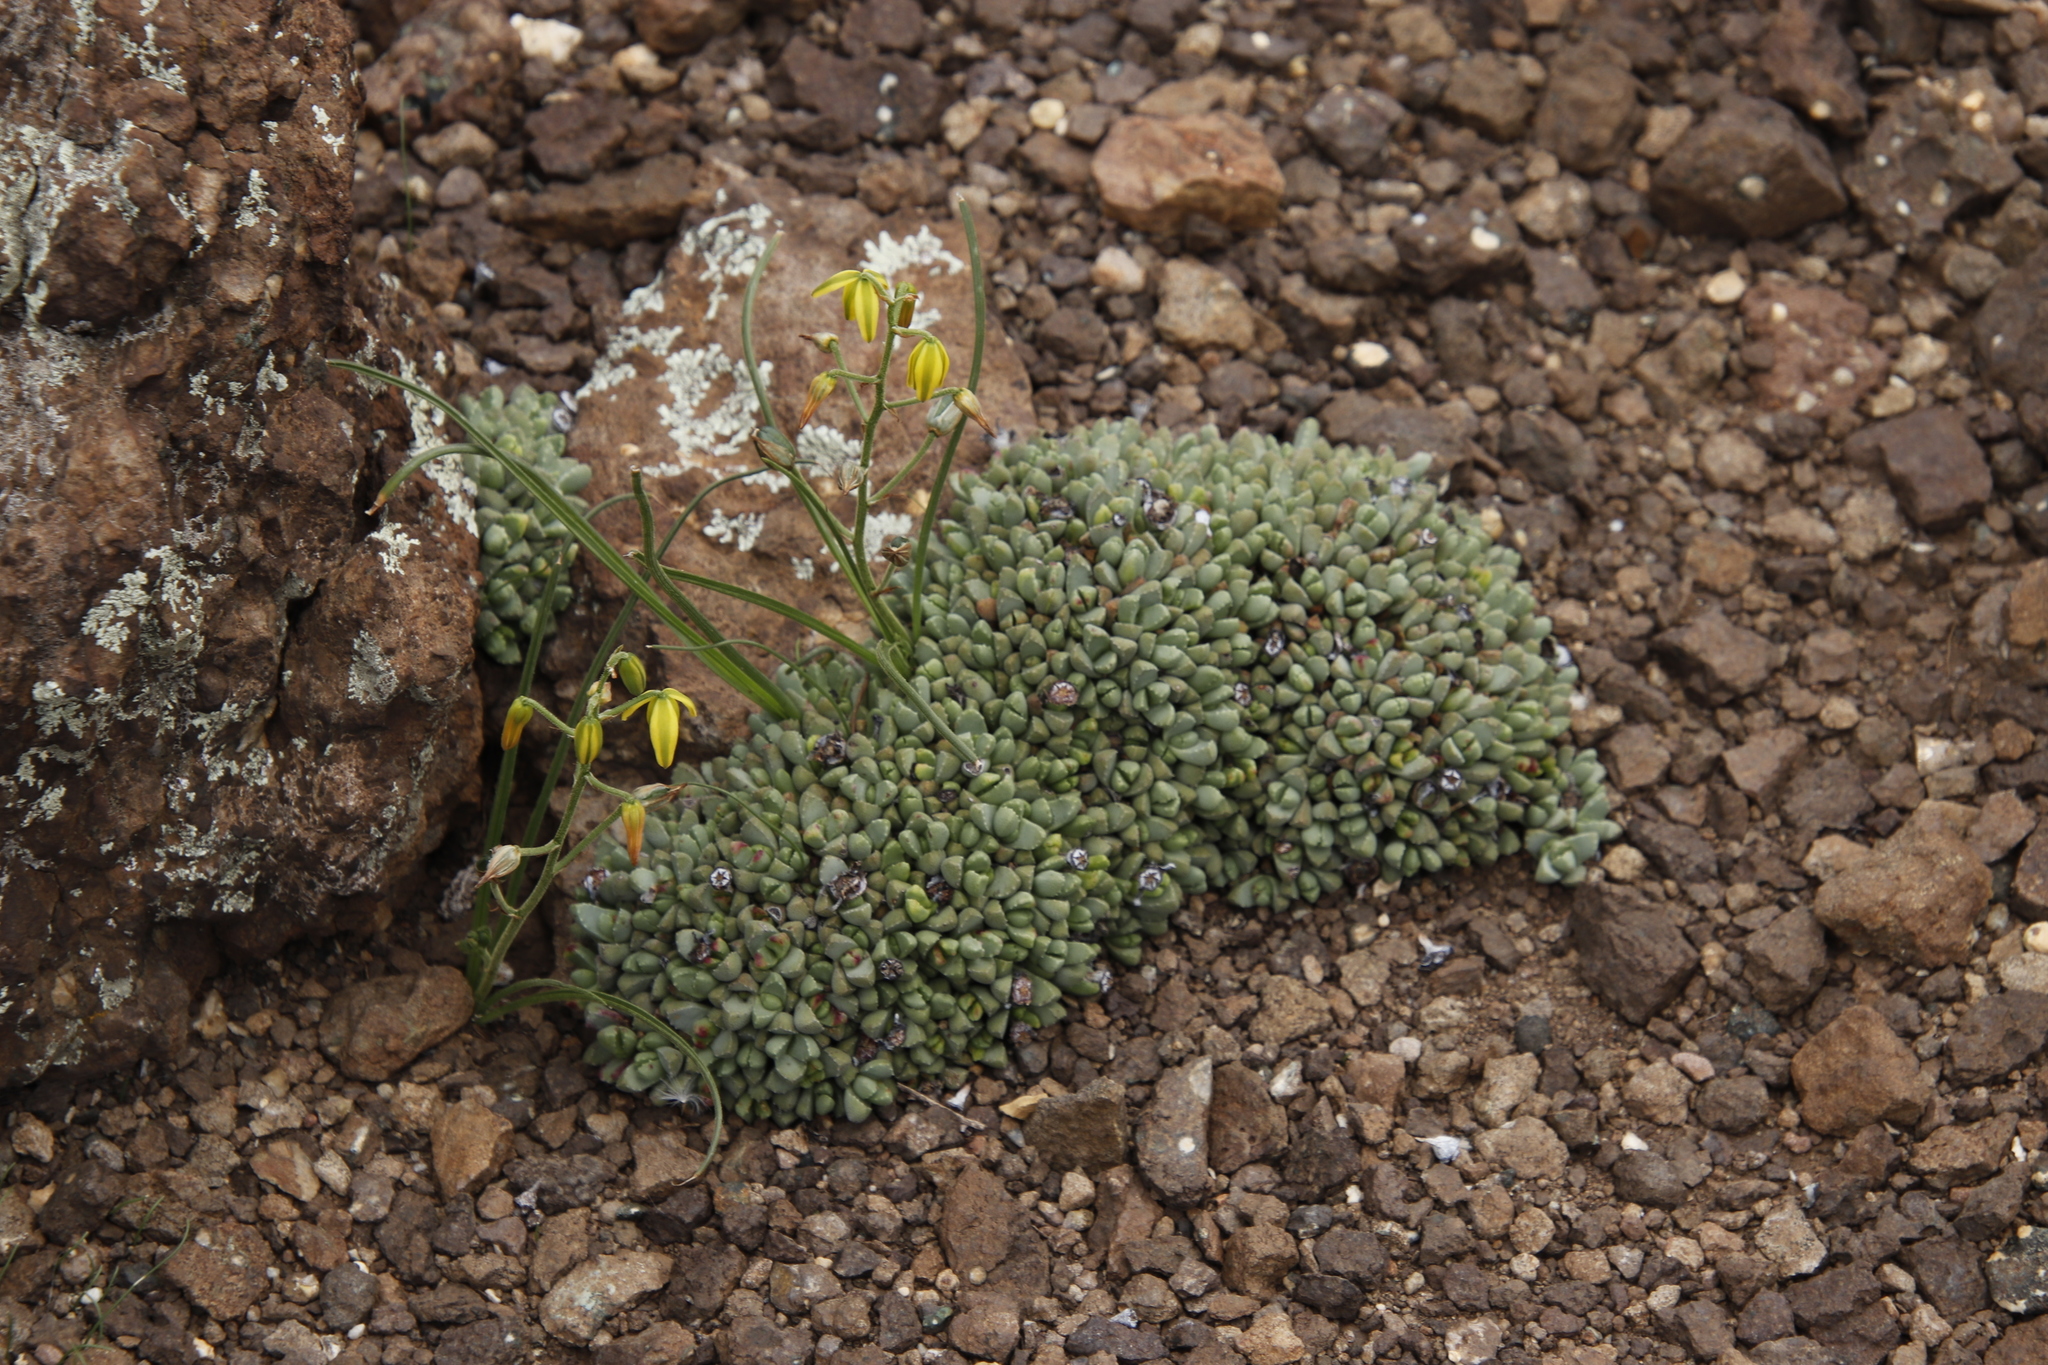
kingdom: Plantae
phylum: Tracheophyta
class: Liliopsida
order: Asparagales
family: Asparagaceae
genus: Albuca
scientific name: Albuca shawii
